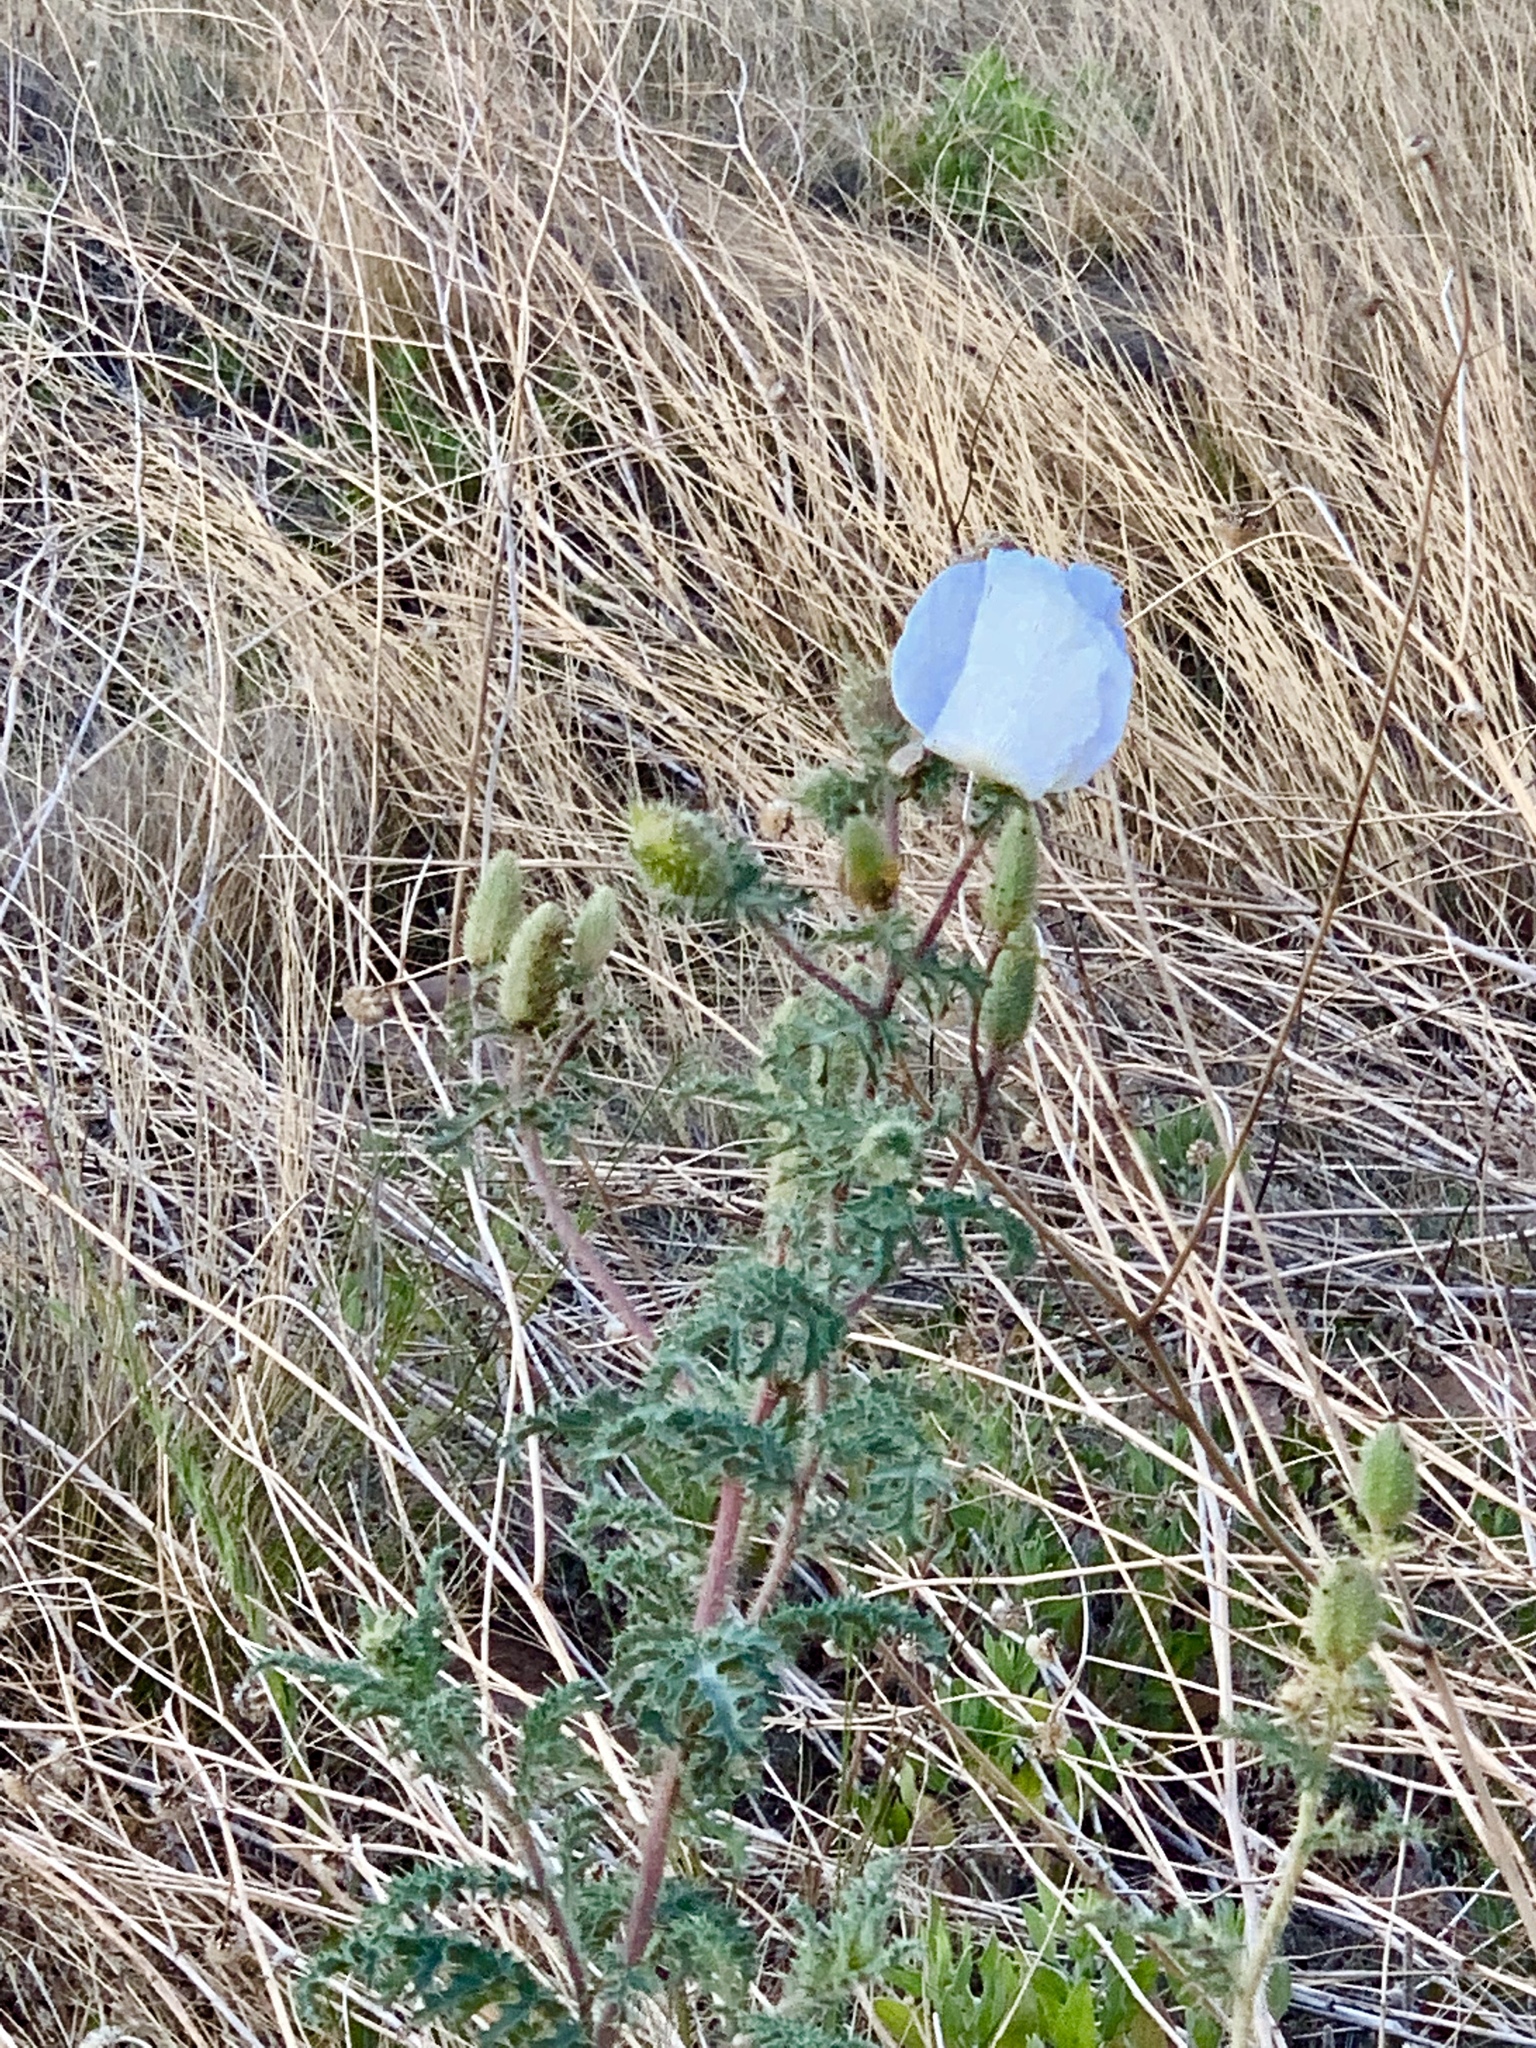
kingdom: Plantae
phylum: Tracheophyta
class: Magnoliopsida
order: Ranunculales
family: Papaveraceae
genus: Argemone
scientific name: Argemone pleiacantha
